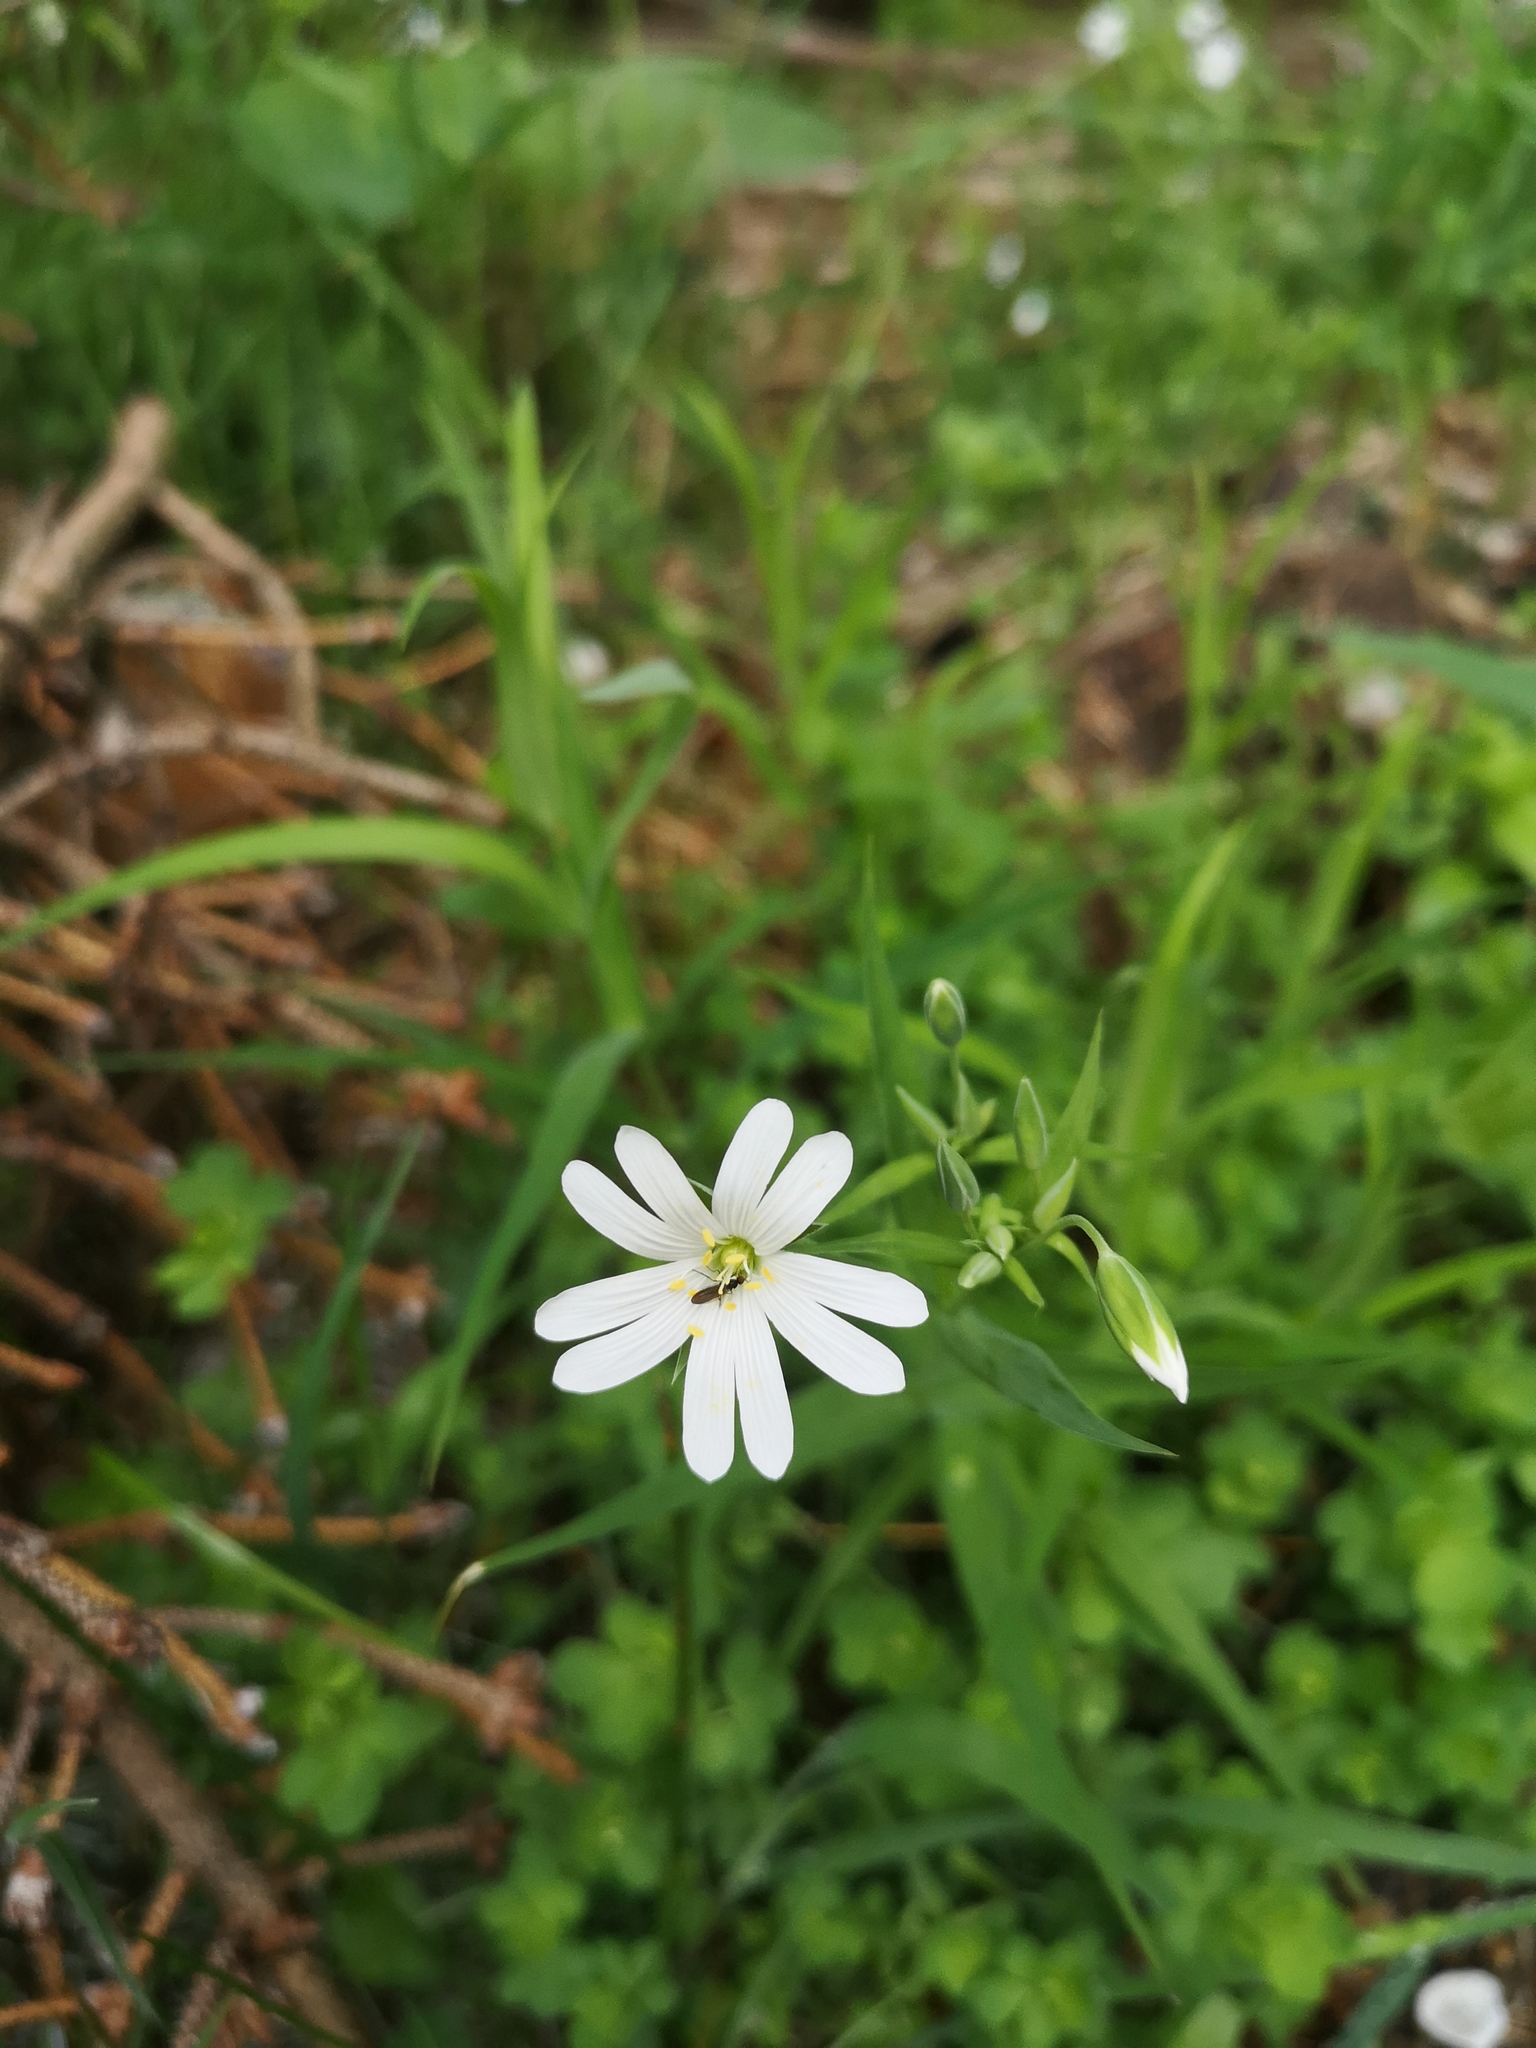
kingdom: Plantae
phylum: Tracheophyta
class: Magnoliopsida
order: Caryophyllales
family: Caryophyllaceae
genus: Rabelera
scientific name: Rabelera holostea
